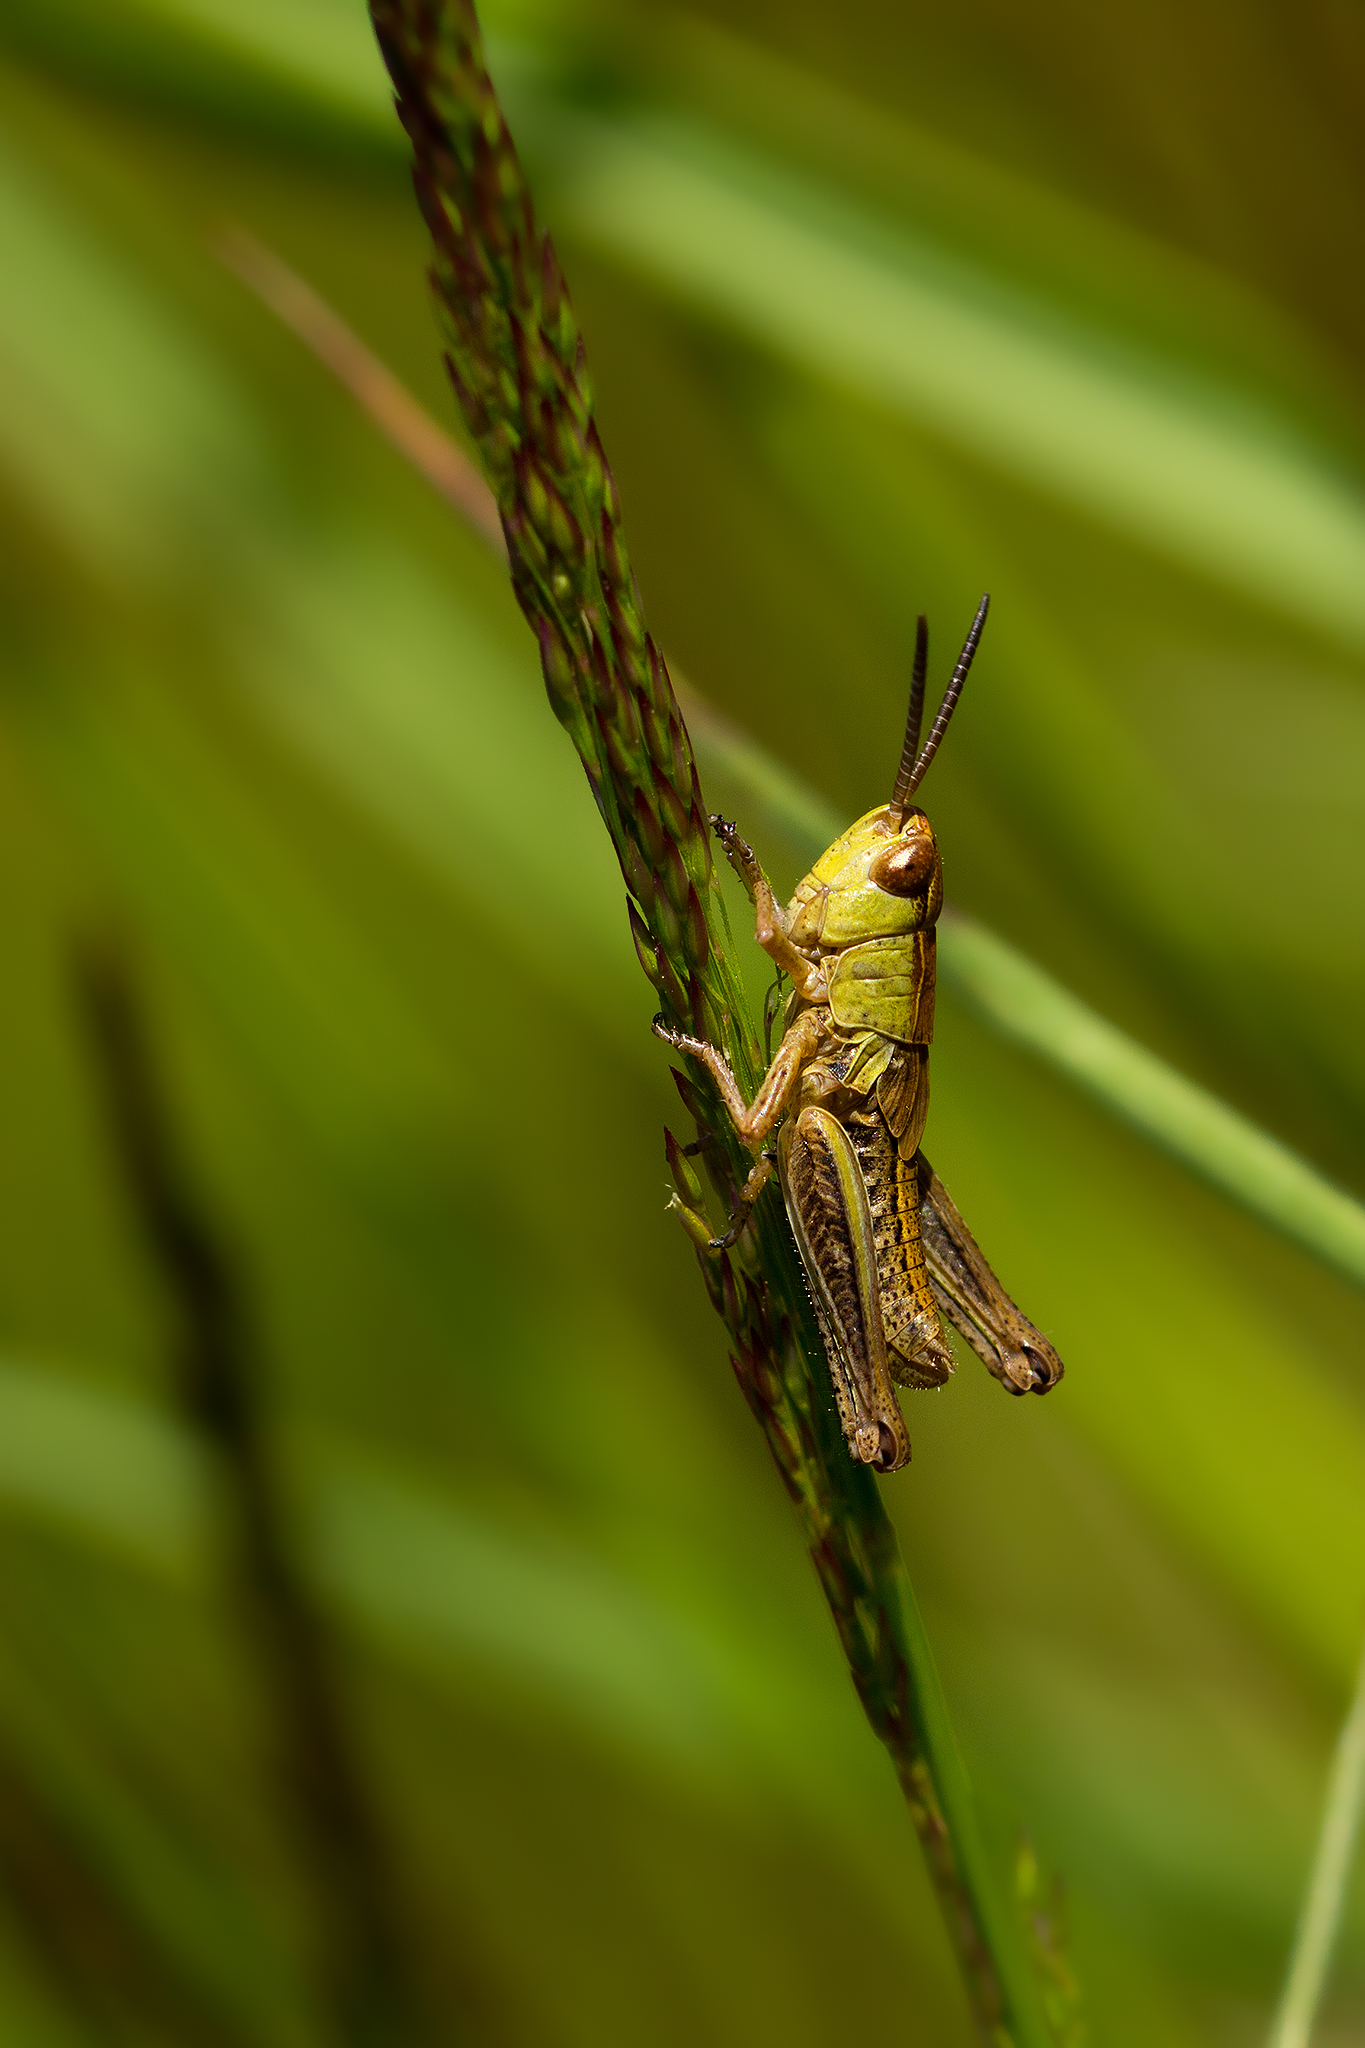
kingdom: Animalia
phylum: Arthropoda
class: Insecta
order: Orthoptera
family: Acrididae
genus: Pseudochorthippus
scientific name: Pseudochorthippus parallelus
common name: Meadow grasshopper
